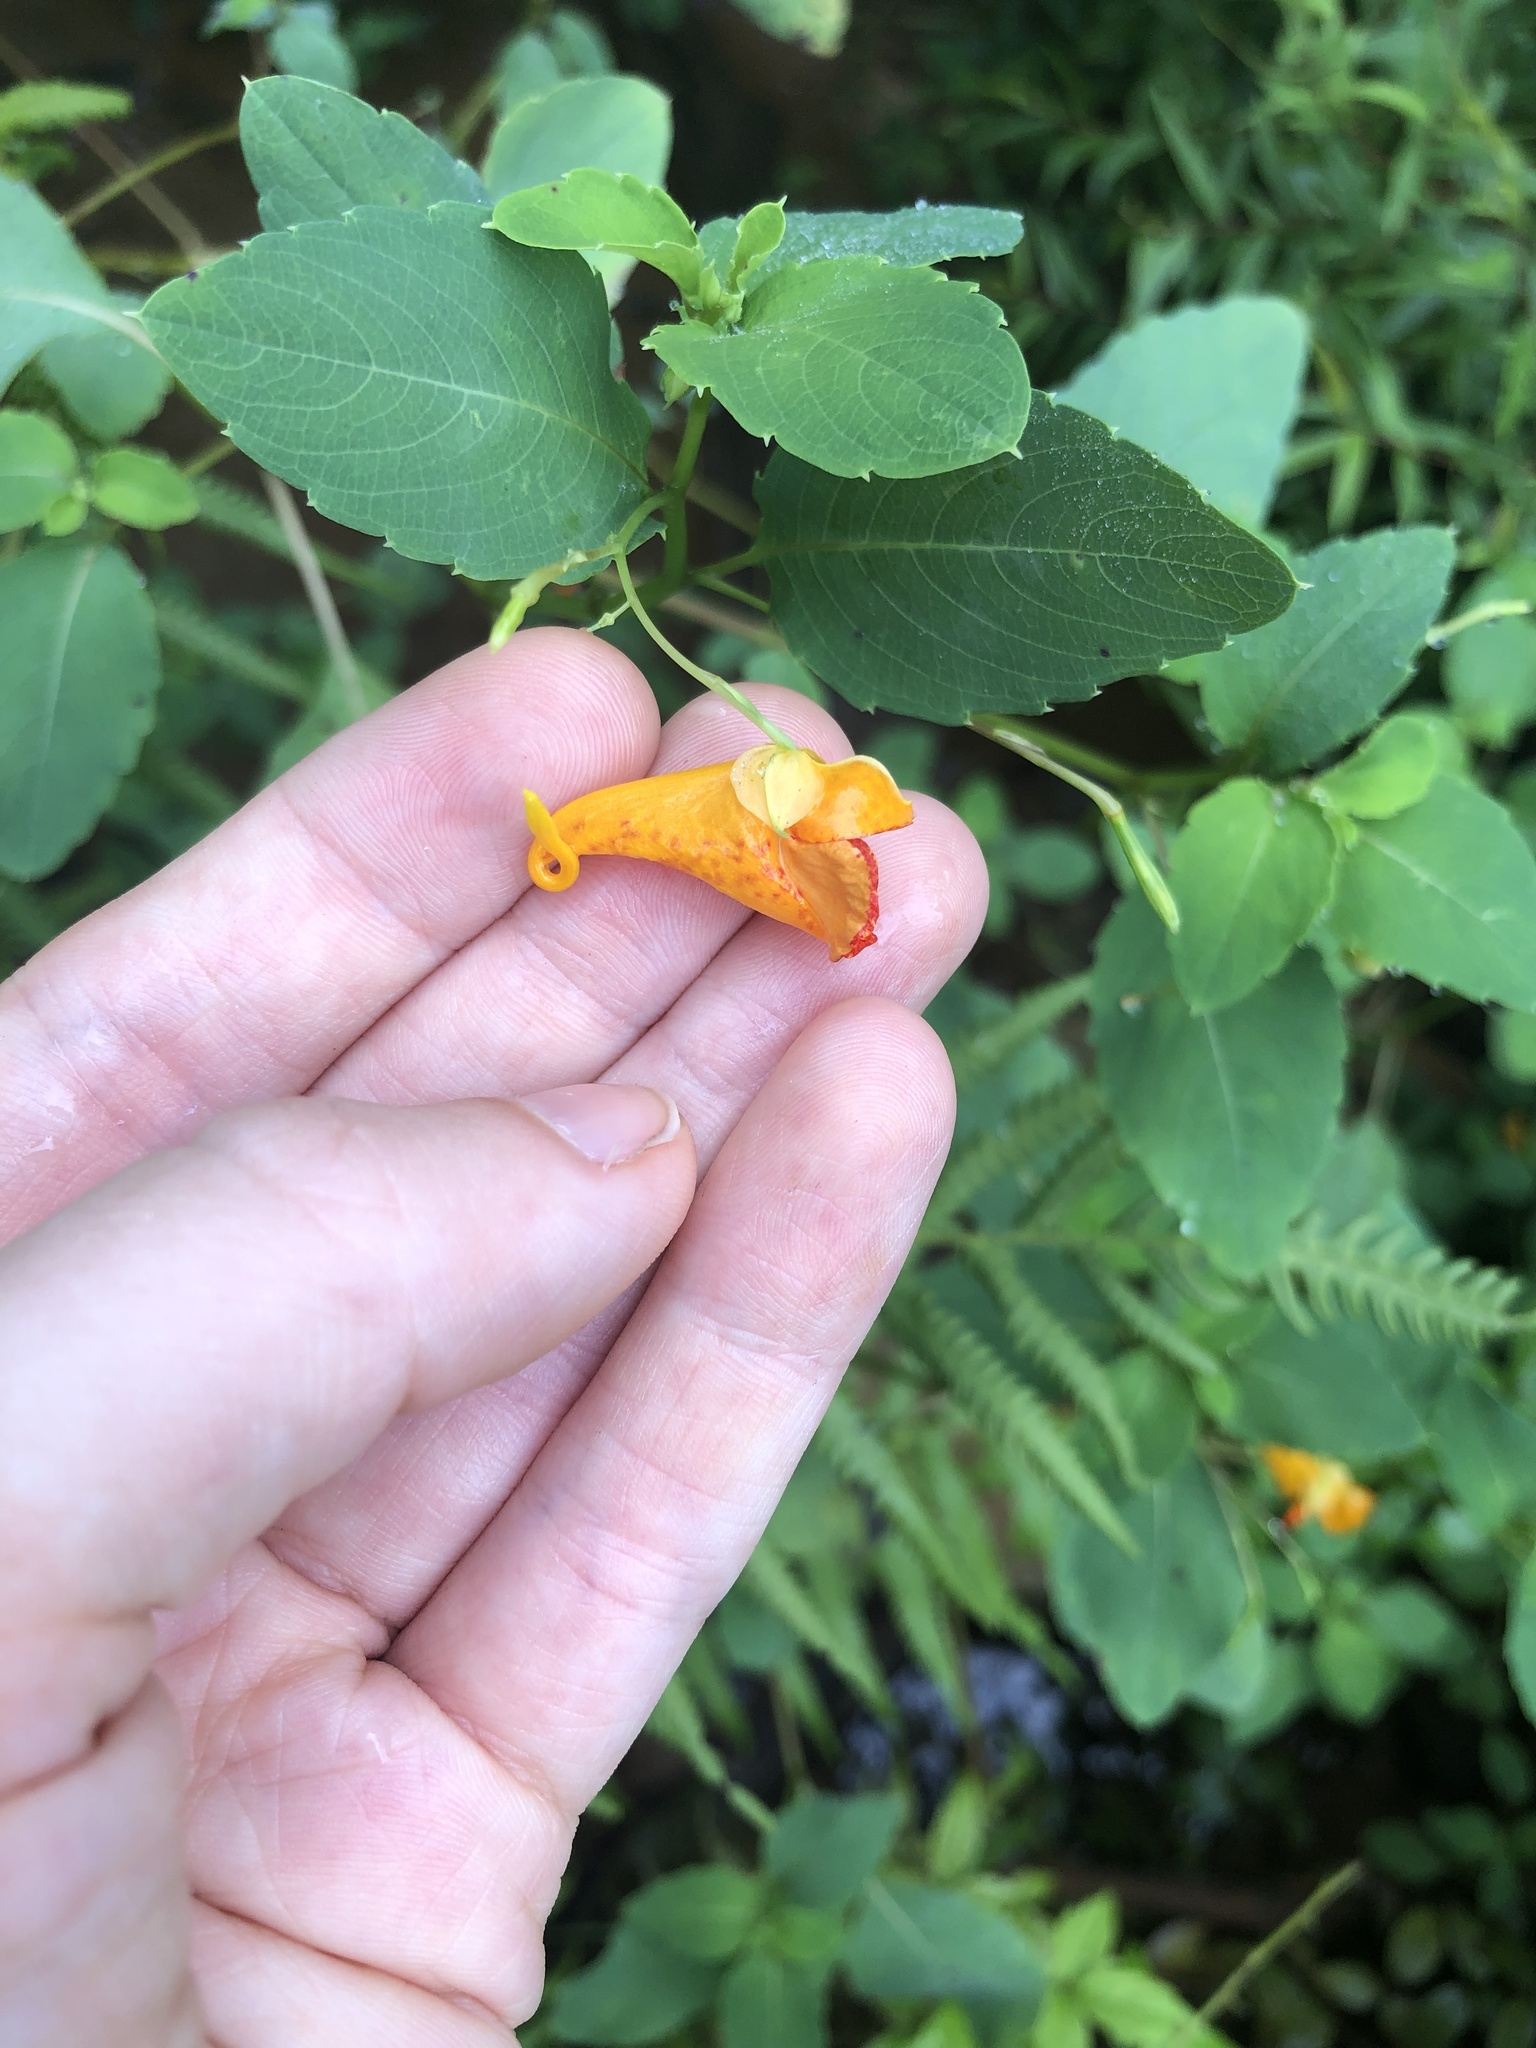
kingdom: Plantae
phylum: Tracheophyta
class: Magnoliopsida
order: Ericales
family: Balsaminaceae
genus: Impatiens
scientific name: Impatiens capensis
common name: Orange balsam
